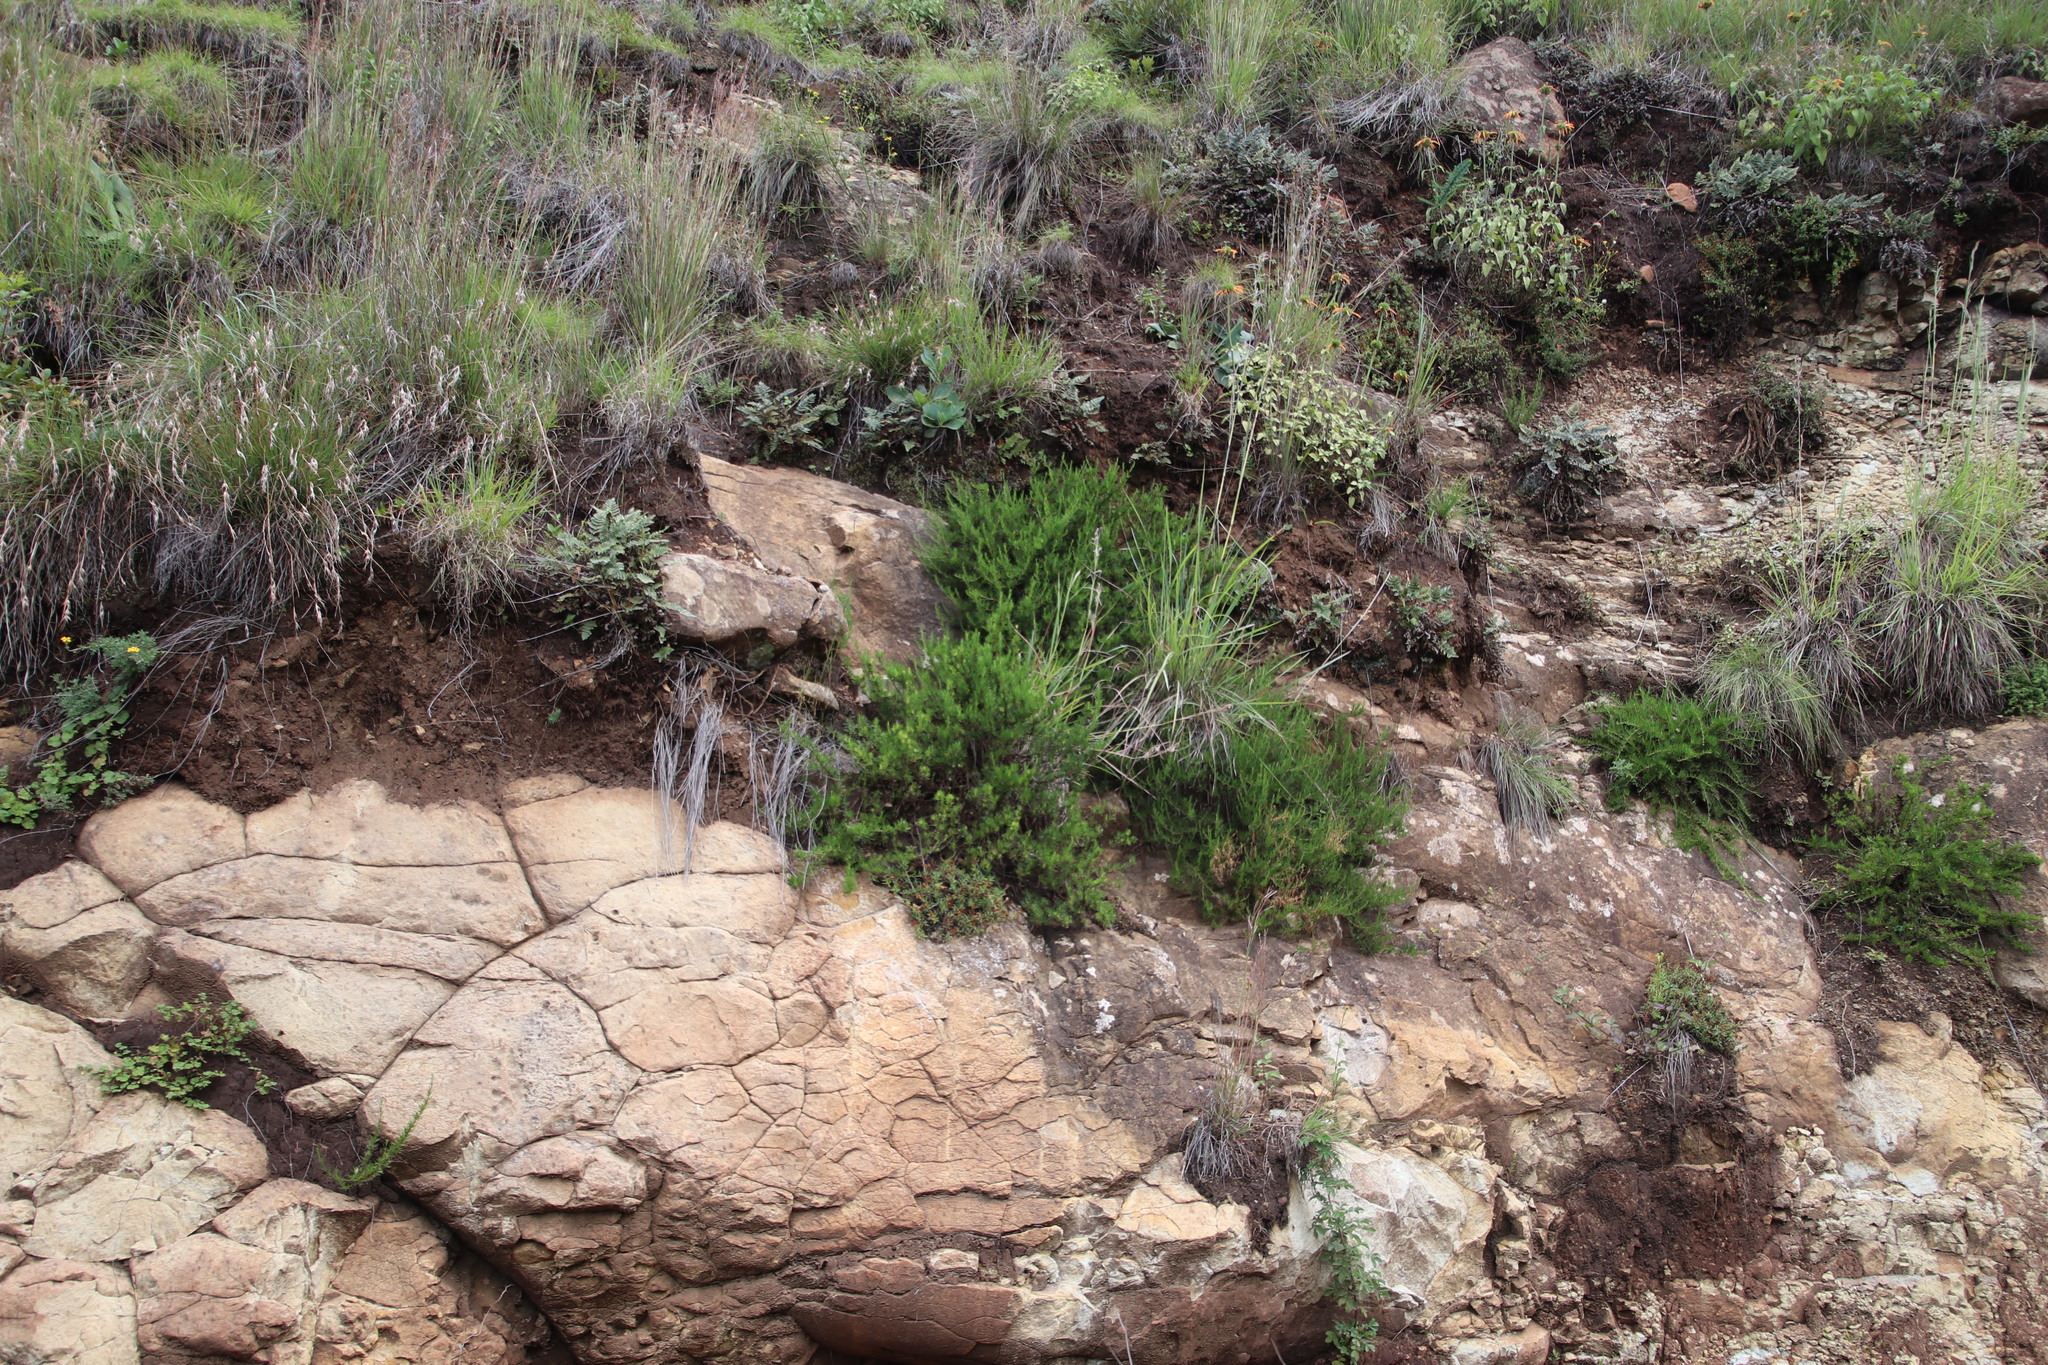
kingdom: Plantae
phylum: Tracheophyta
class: Magnoliopsida
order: Asterales
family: Asteraceae
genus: Felicia
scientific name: Felicia filifolia
